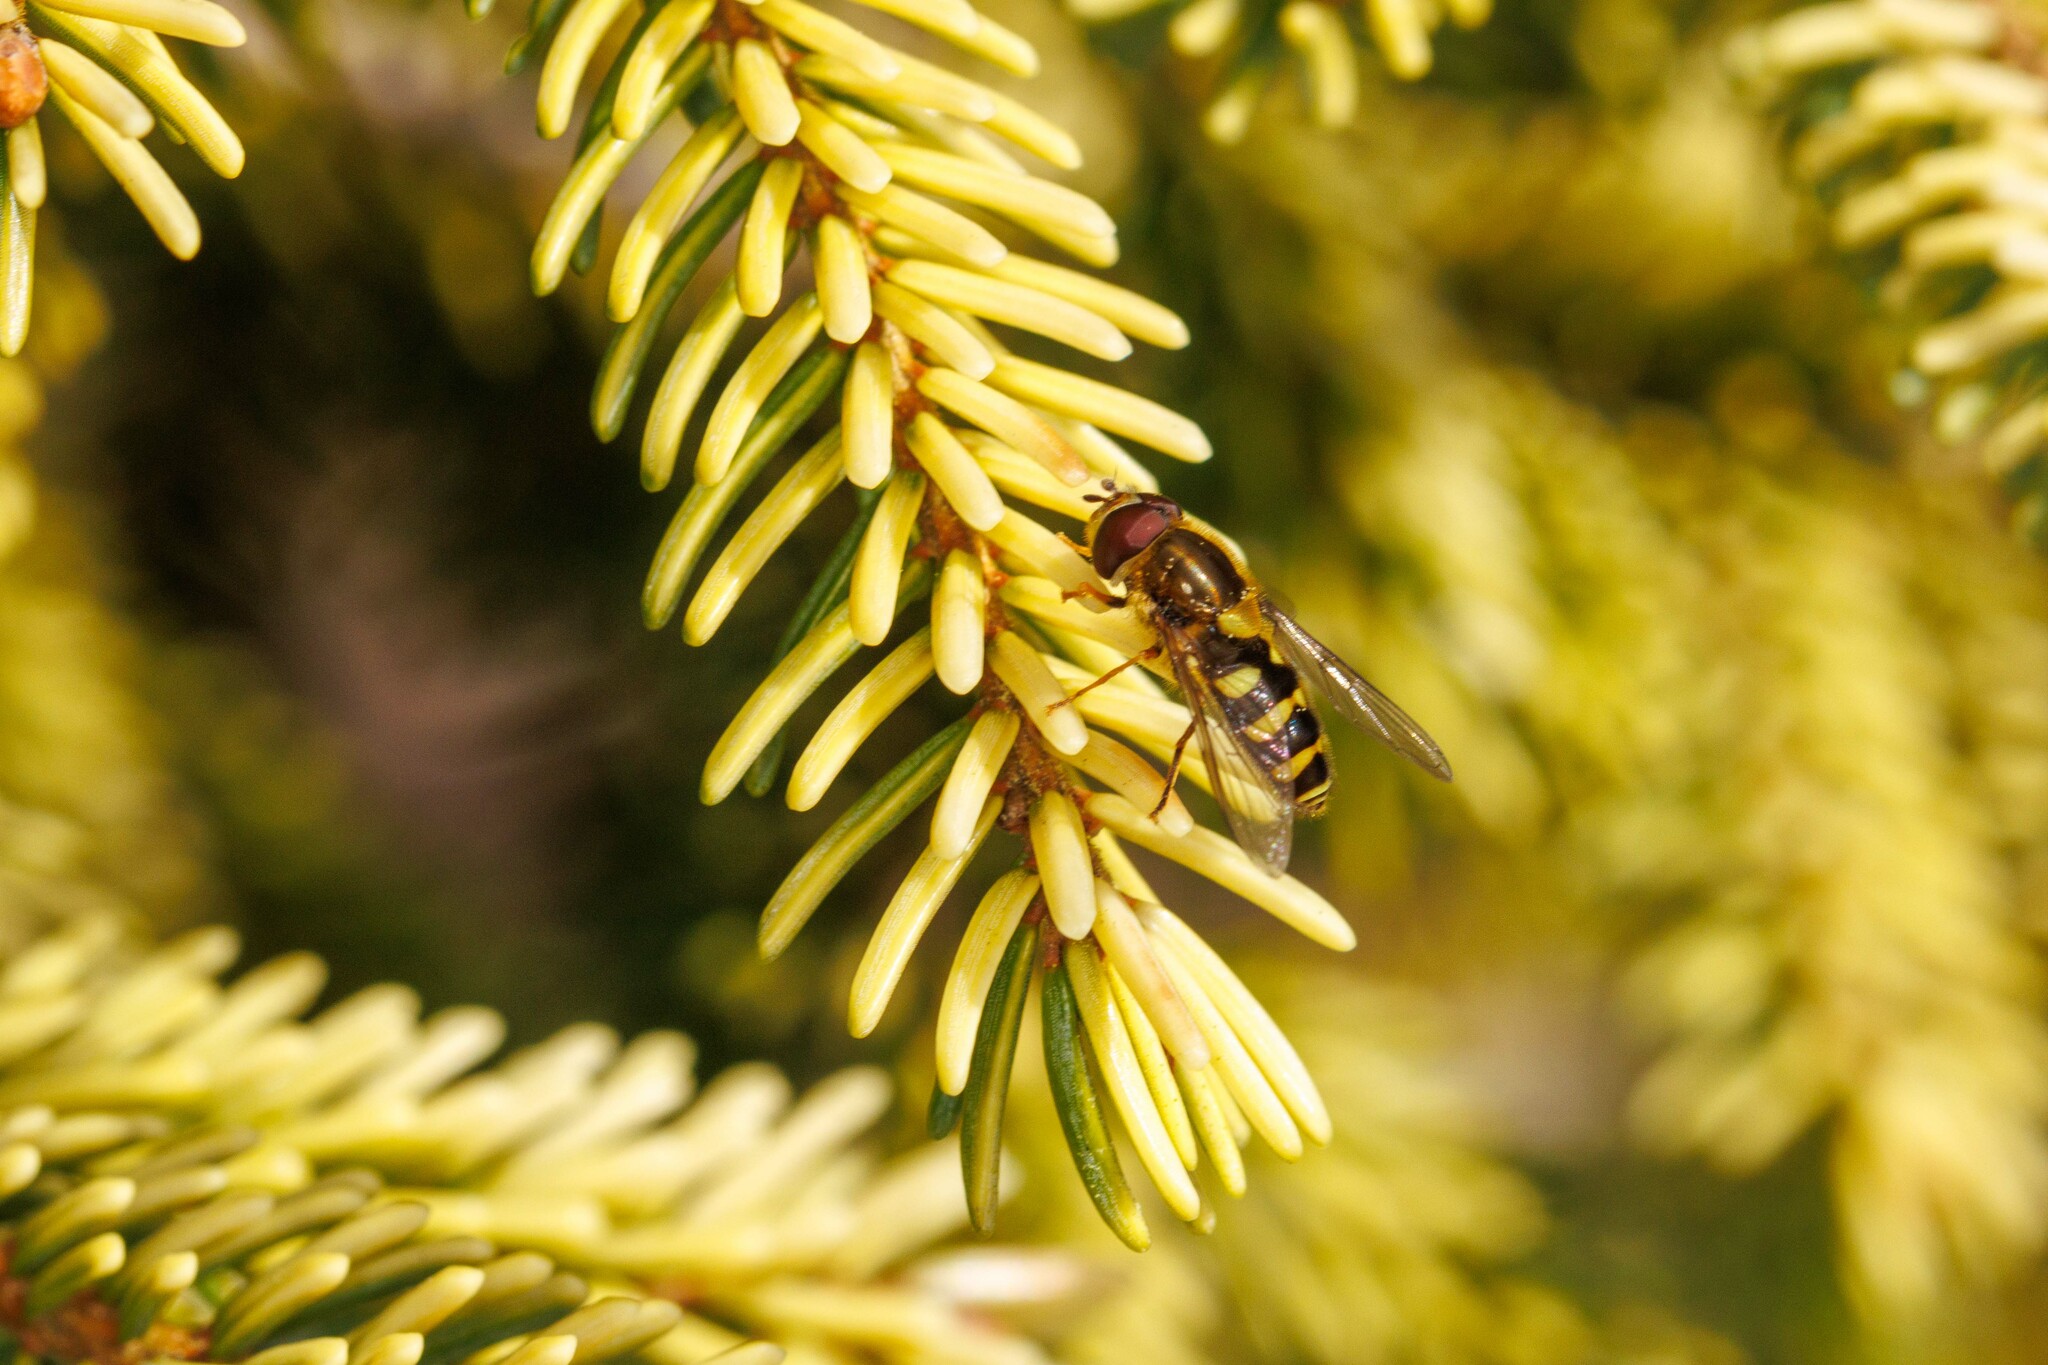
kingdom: Animalia
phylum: Arthropoda
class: Insecta
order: Diptera
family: Syrphidae
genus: Syrphus
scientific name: Syrphus opinator
